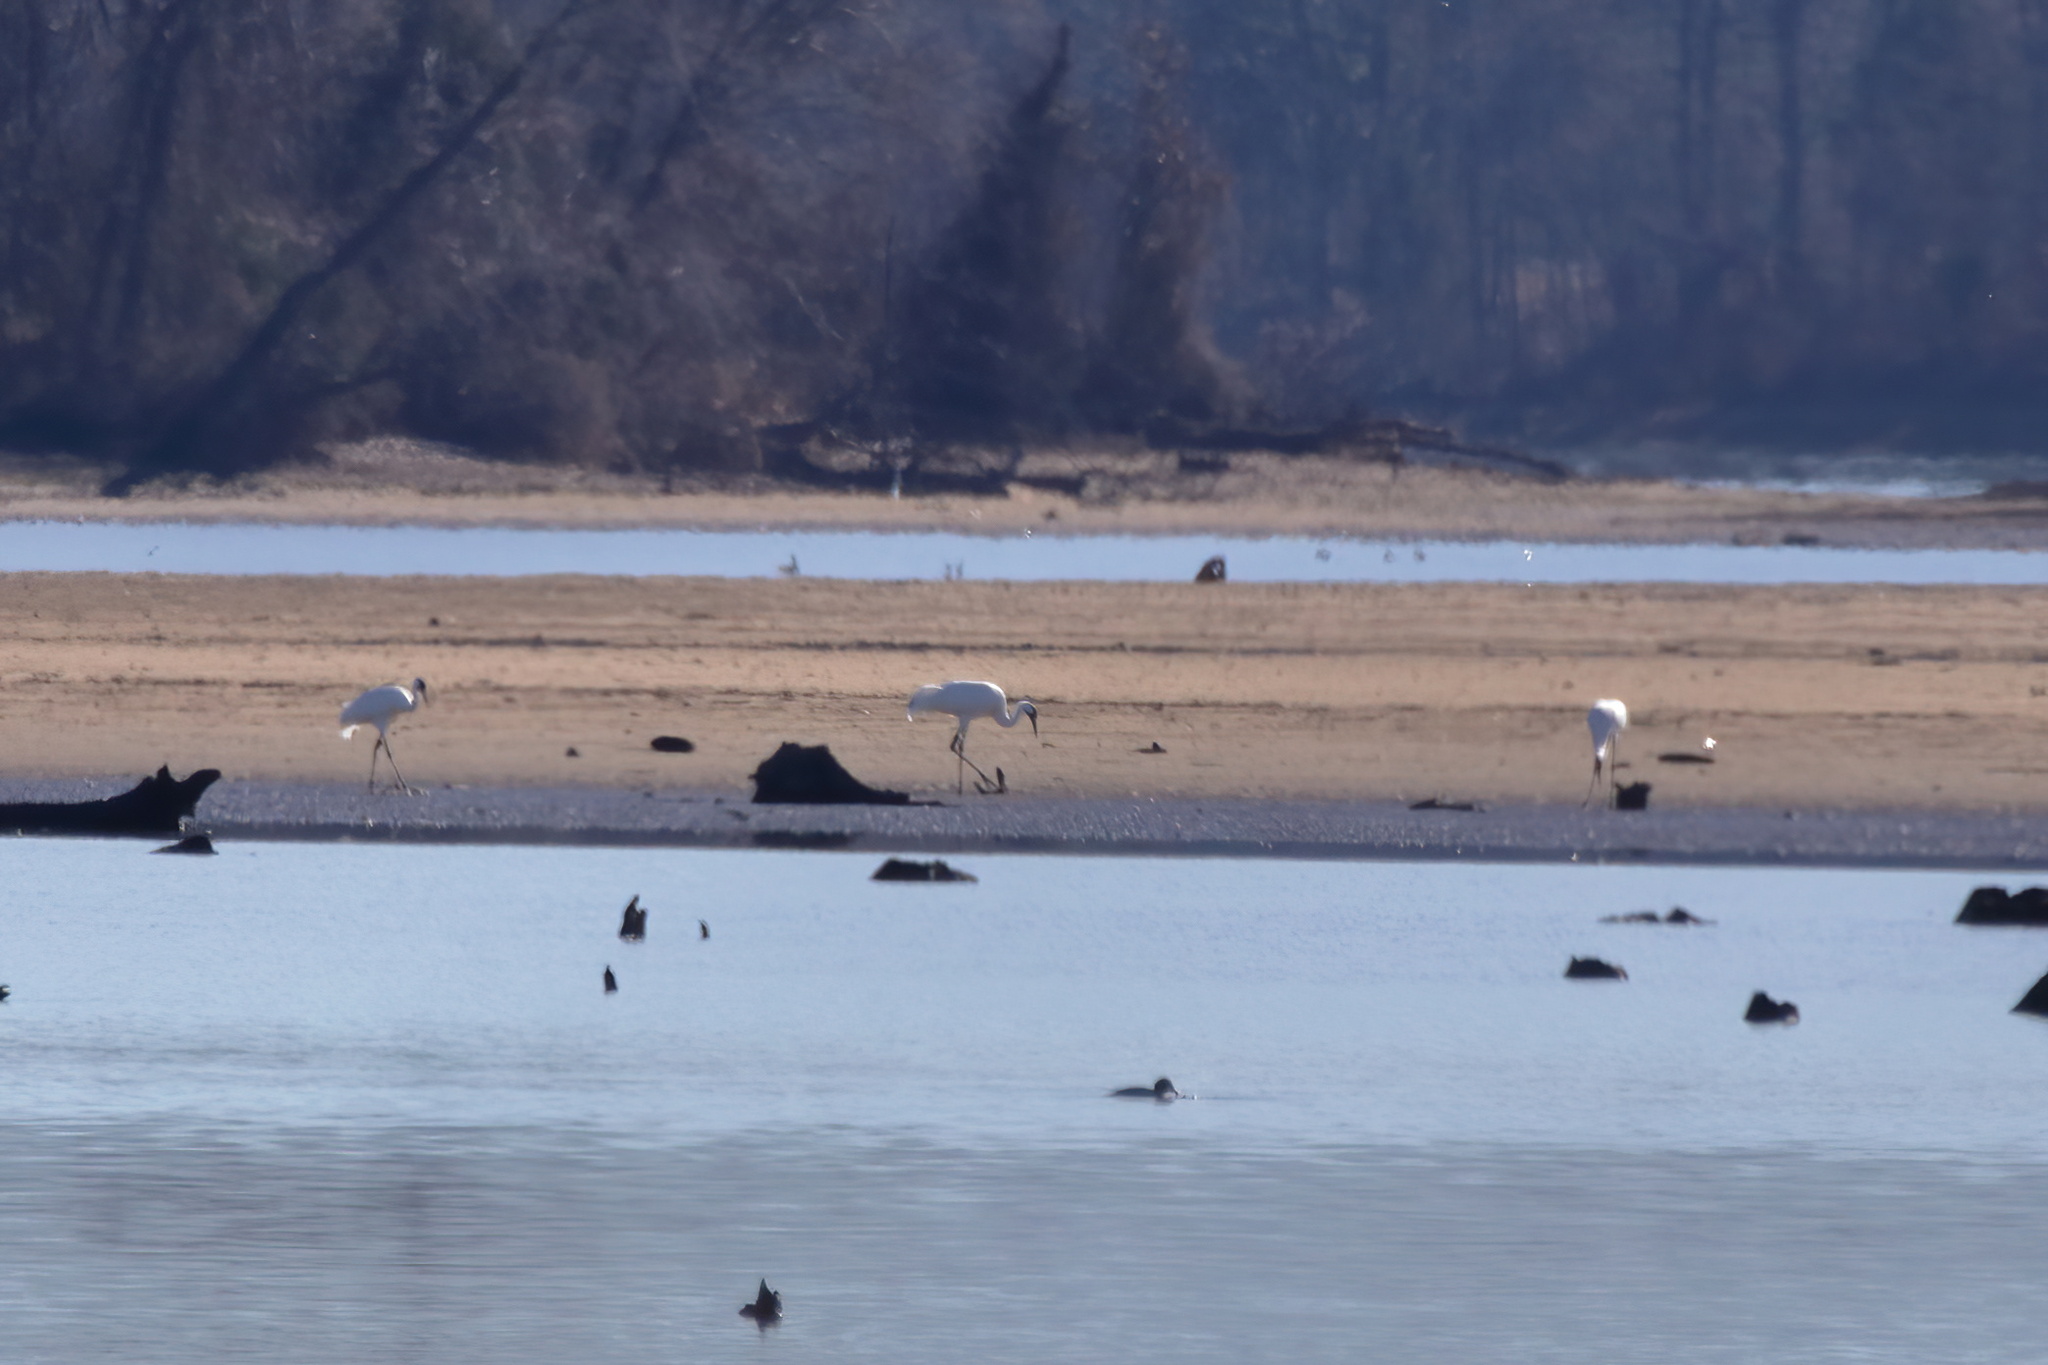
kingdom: Animalia
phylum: Chordata
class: Aves
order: Gruiformes
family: Gruidae
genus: Grus
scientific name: Grus americana
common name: Whooping crane
